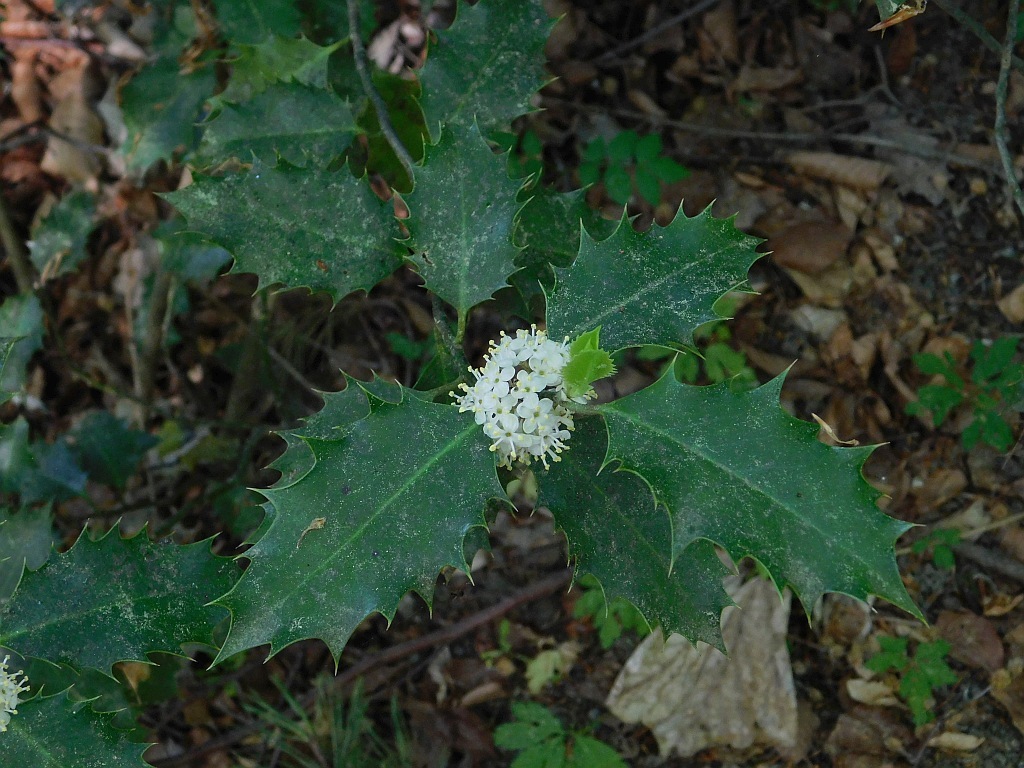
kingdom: Plantae
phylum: Tracheophyta
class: Magnoliopsida
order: Aquifoliales
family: Aquifoliaceae
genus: Ilex
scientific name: Ilex aquifolium
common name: English holly
